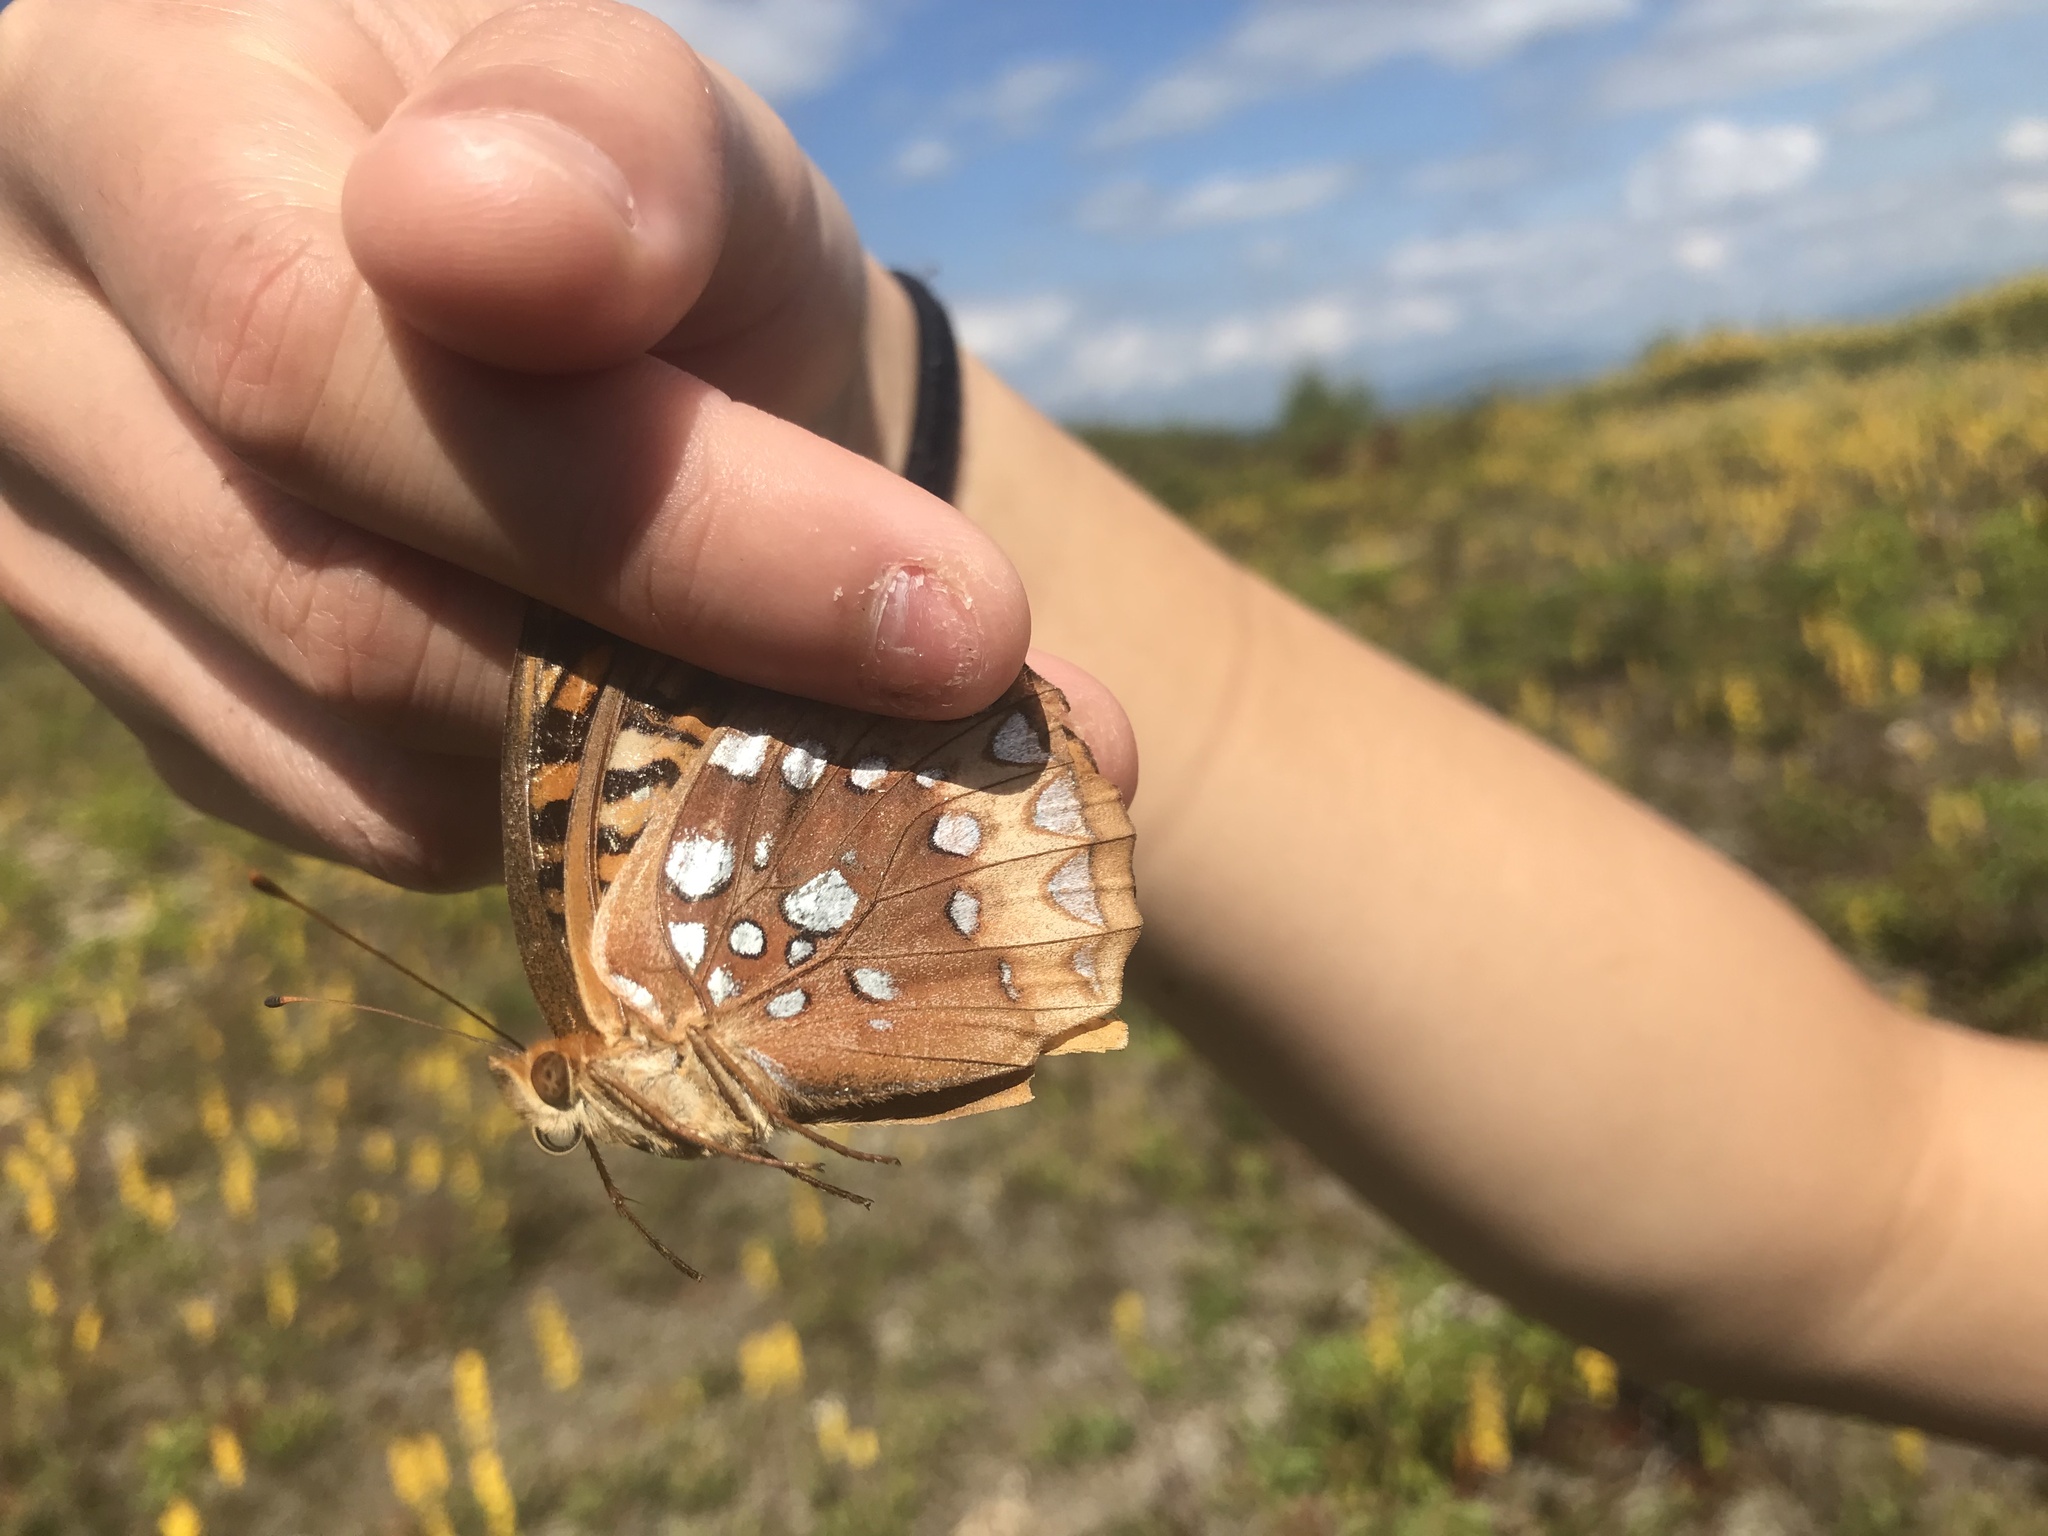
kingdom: Animalia
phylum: Arthropoda
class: Insecta
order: Lepidoptera
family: Nymphalidae
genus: Speyeria
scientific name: Speyeria cybele
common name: Great spangled fritillary
